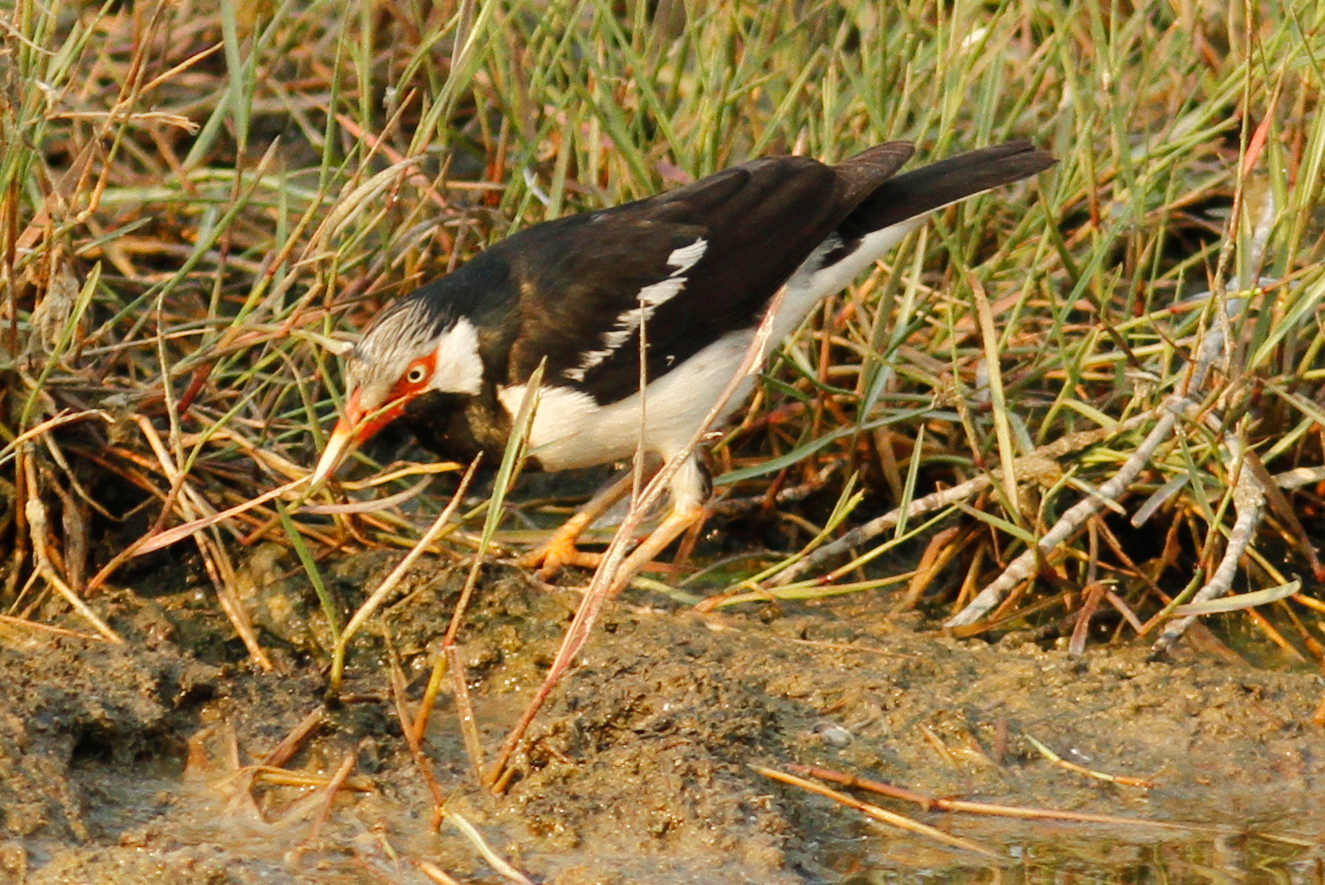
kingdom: Animalia
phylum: Chordata
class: Aves
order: Passeriformes
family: Sturnidae
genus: Gracupica
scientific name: Gracupica contra
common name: Pied myna
